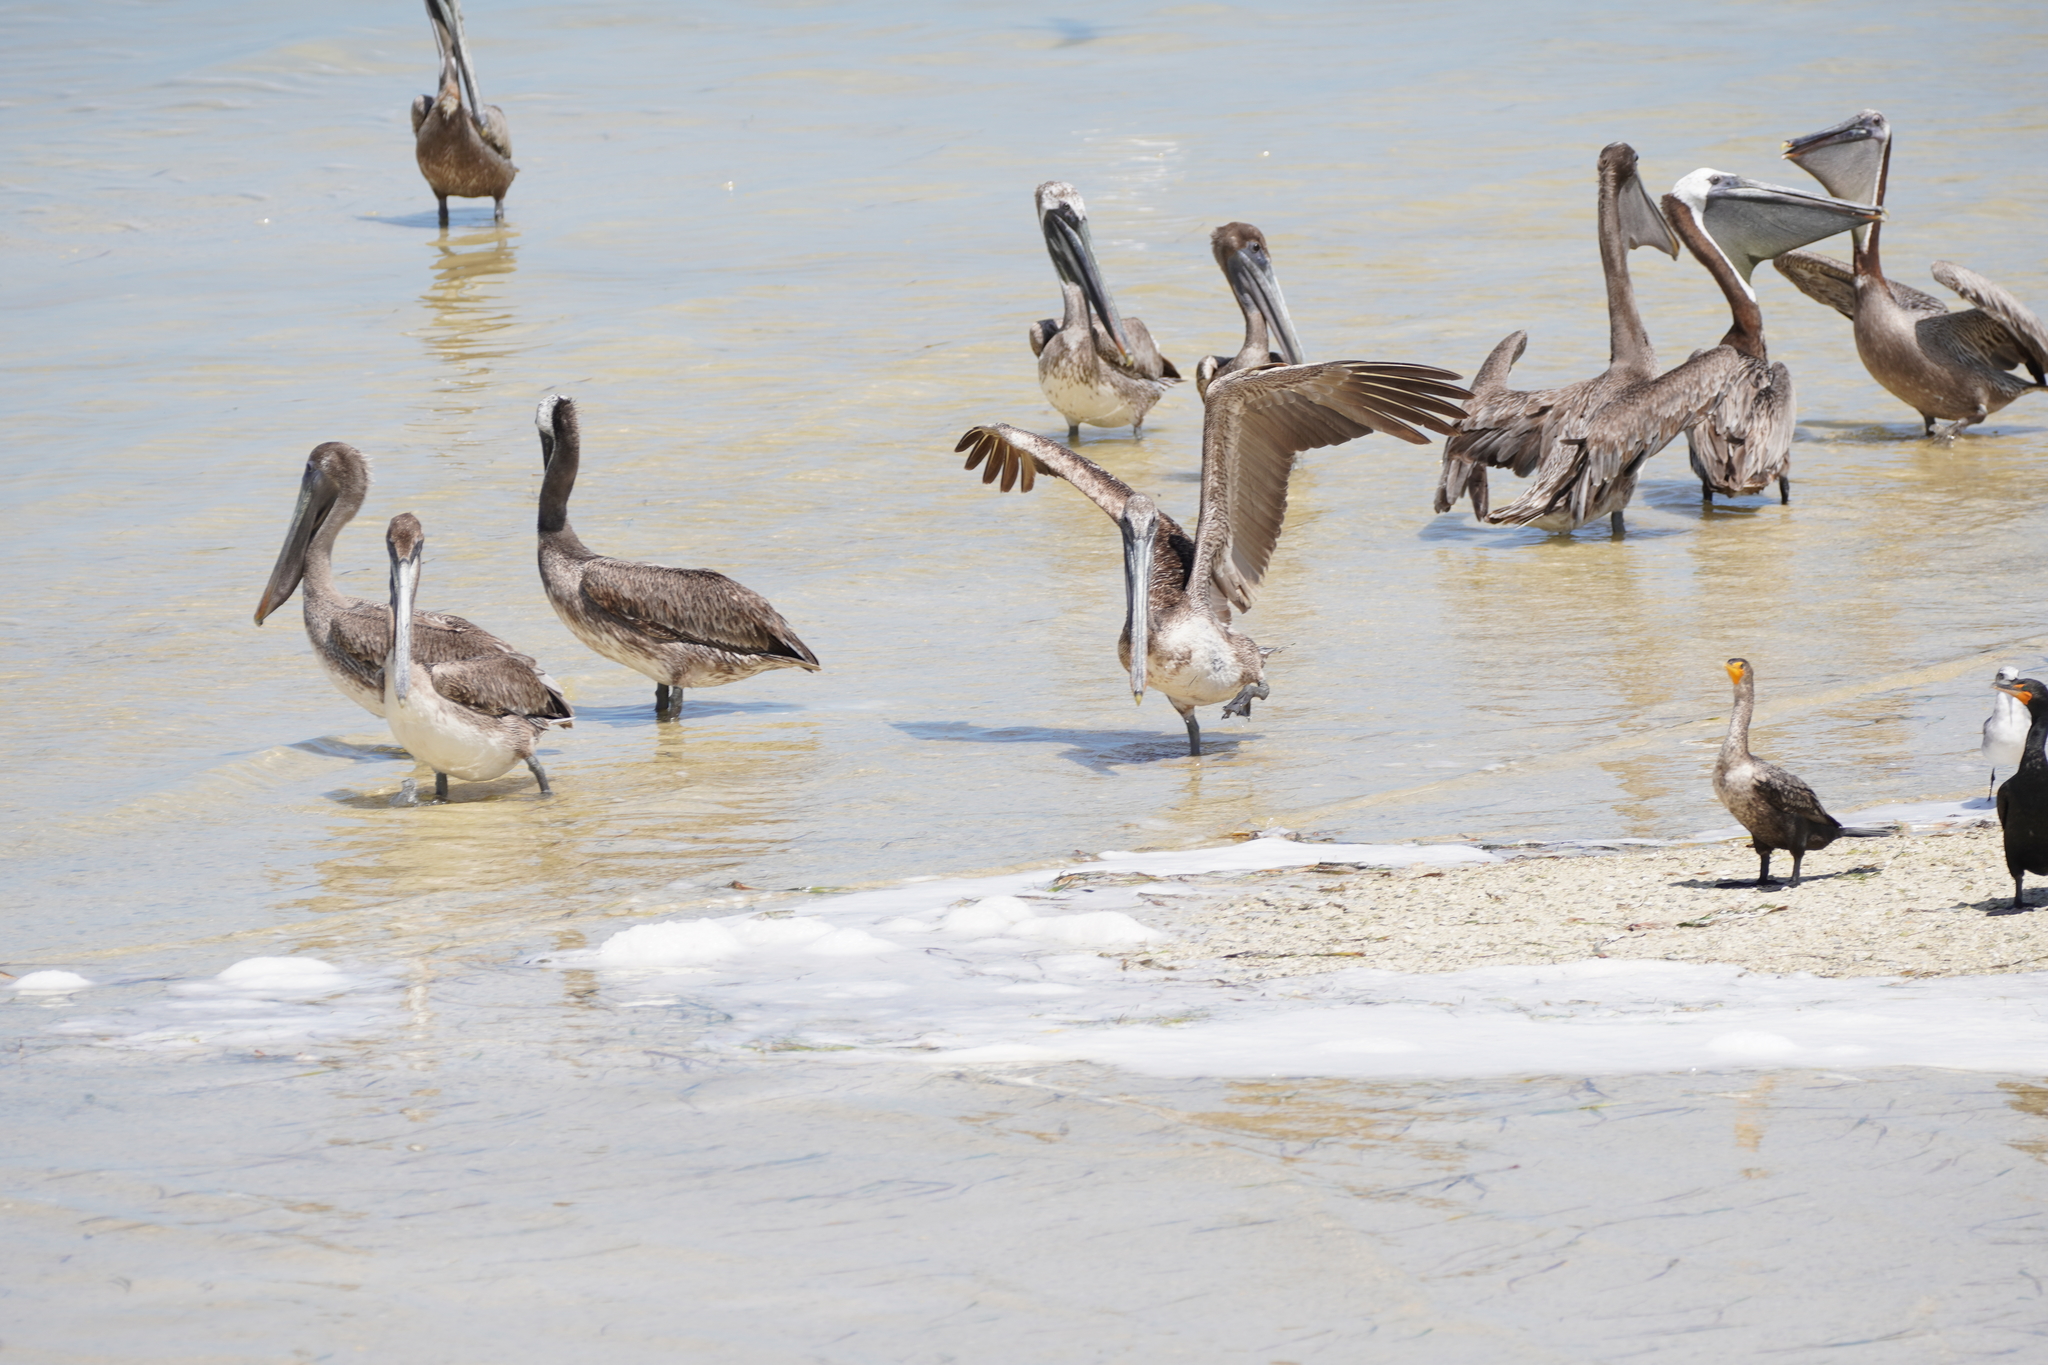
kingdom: Animalia
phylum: Chordata
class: Aves
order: Pelecaniformes
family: Pelecanidae
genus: Pelecanus
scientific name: Pelecanus occidentalis
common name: Brown pelican
